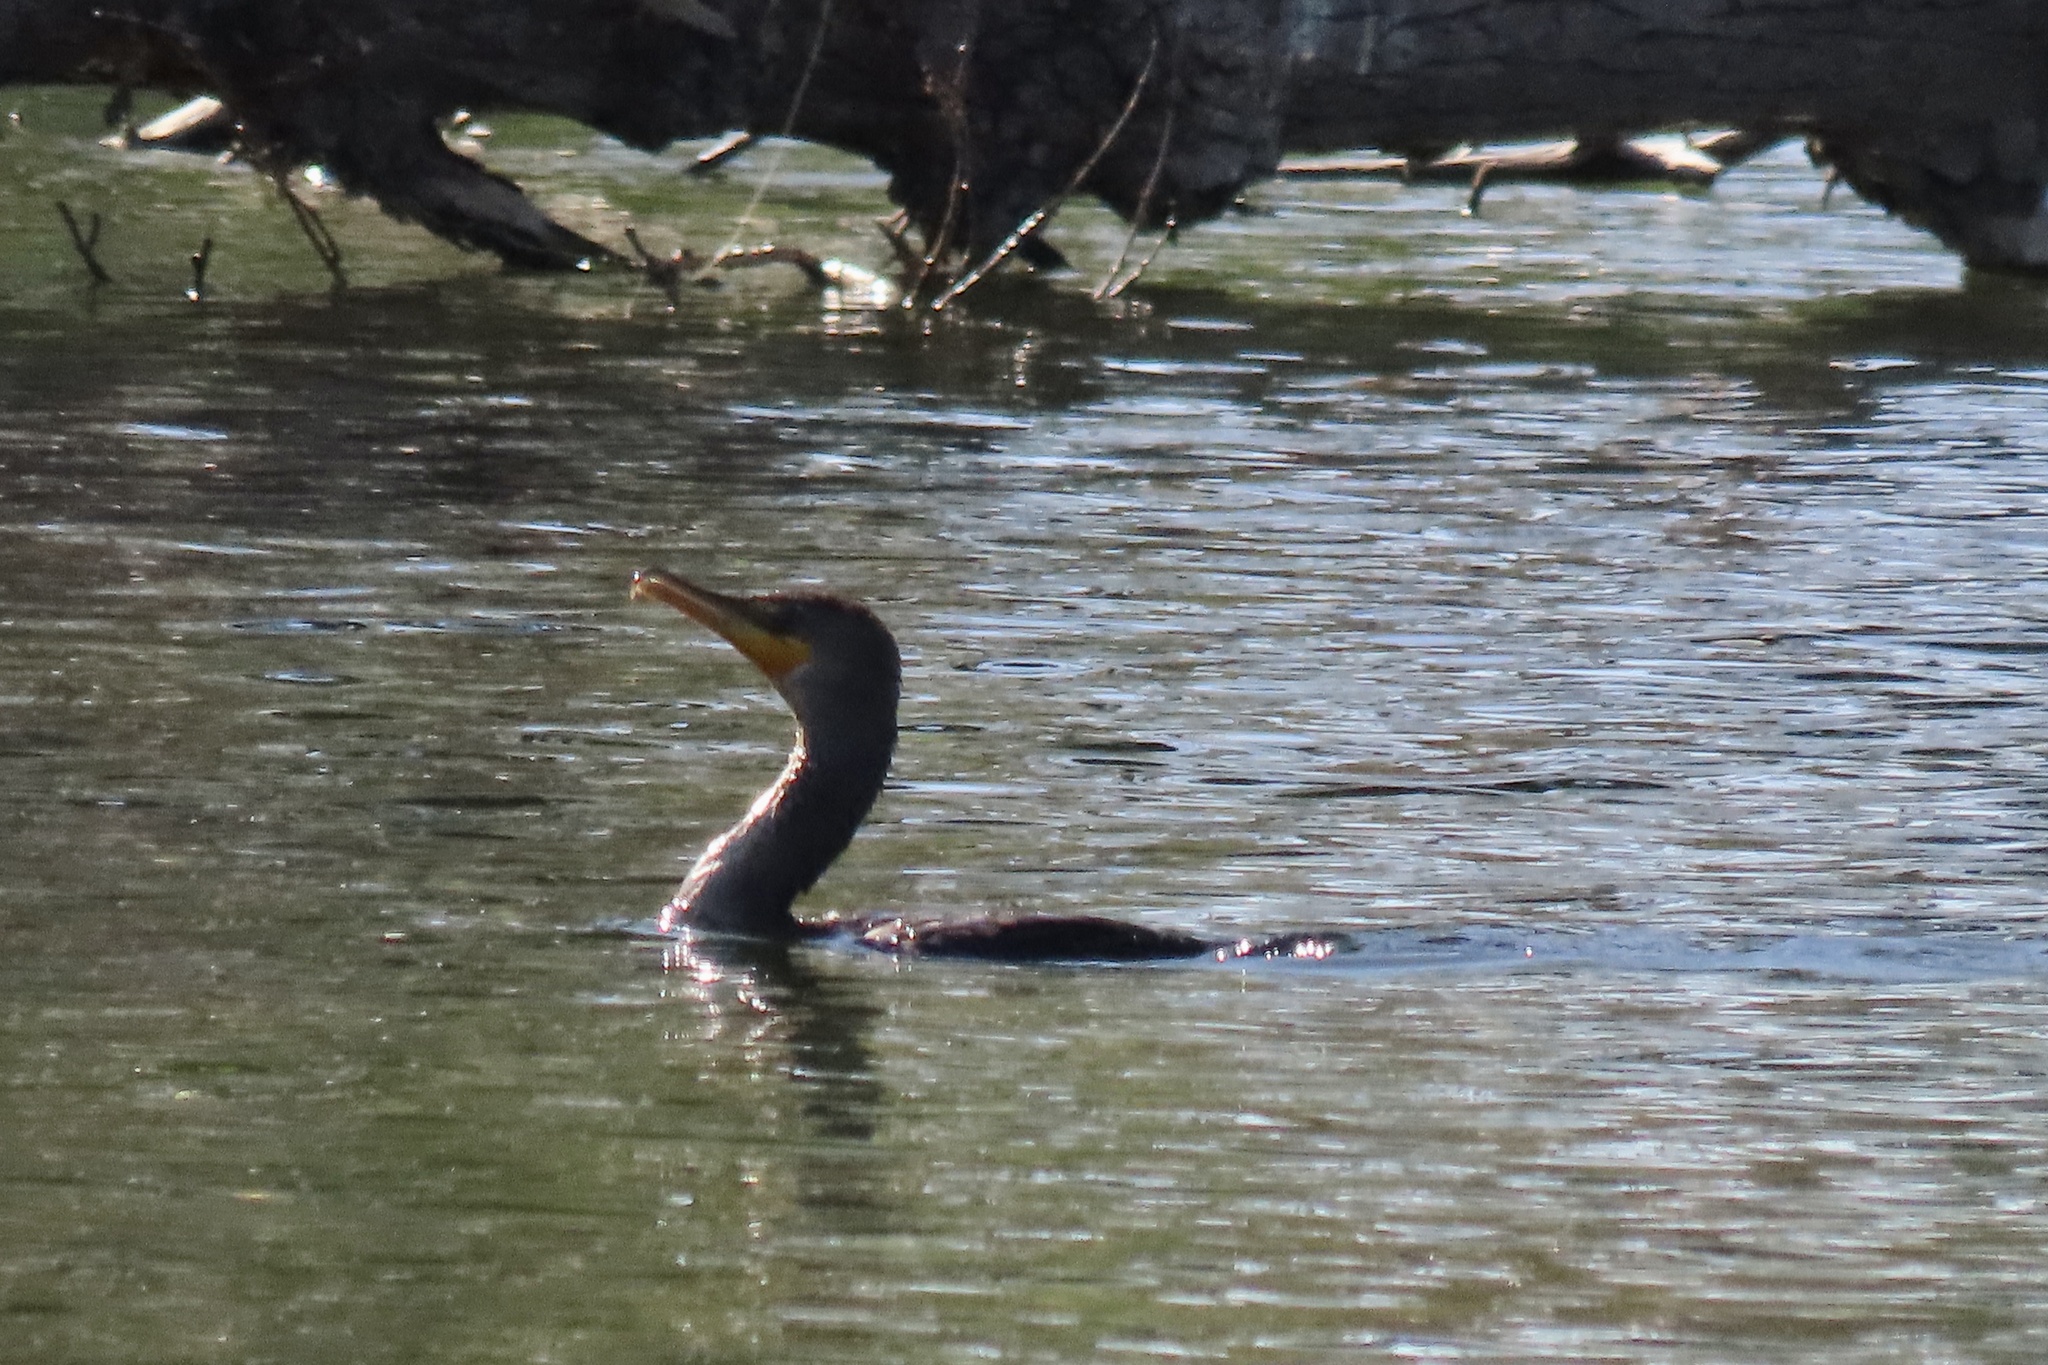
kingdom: Animalia
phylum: Chordata
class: Aves
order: Suliformes
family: Phalacrocoracidae
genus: Phalacrocorax
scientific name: Phalacrocorax auritus
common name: Double-crested cormorant
